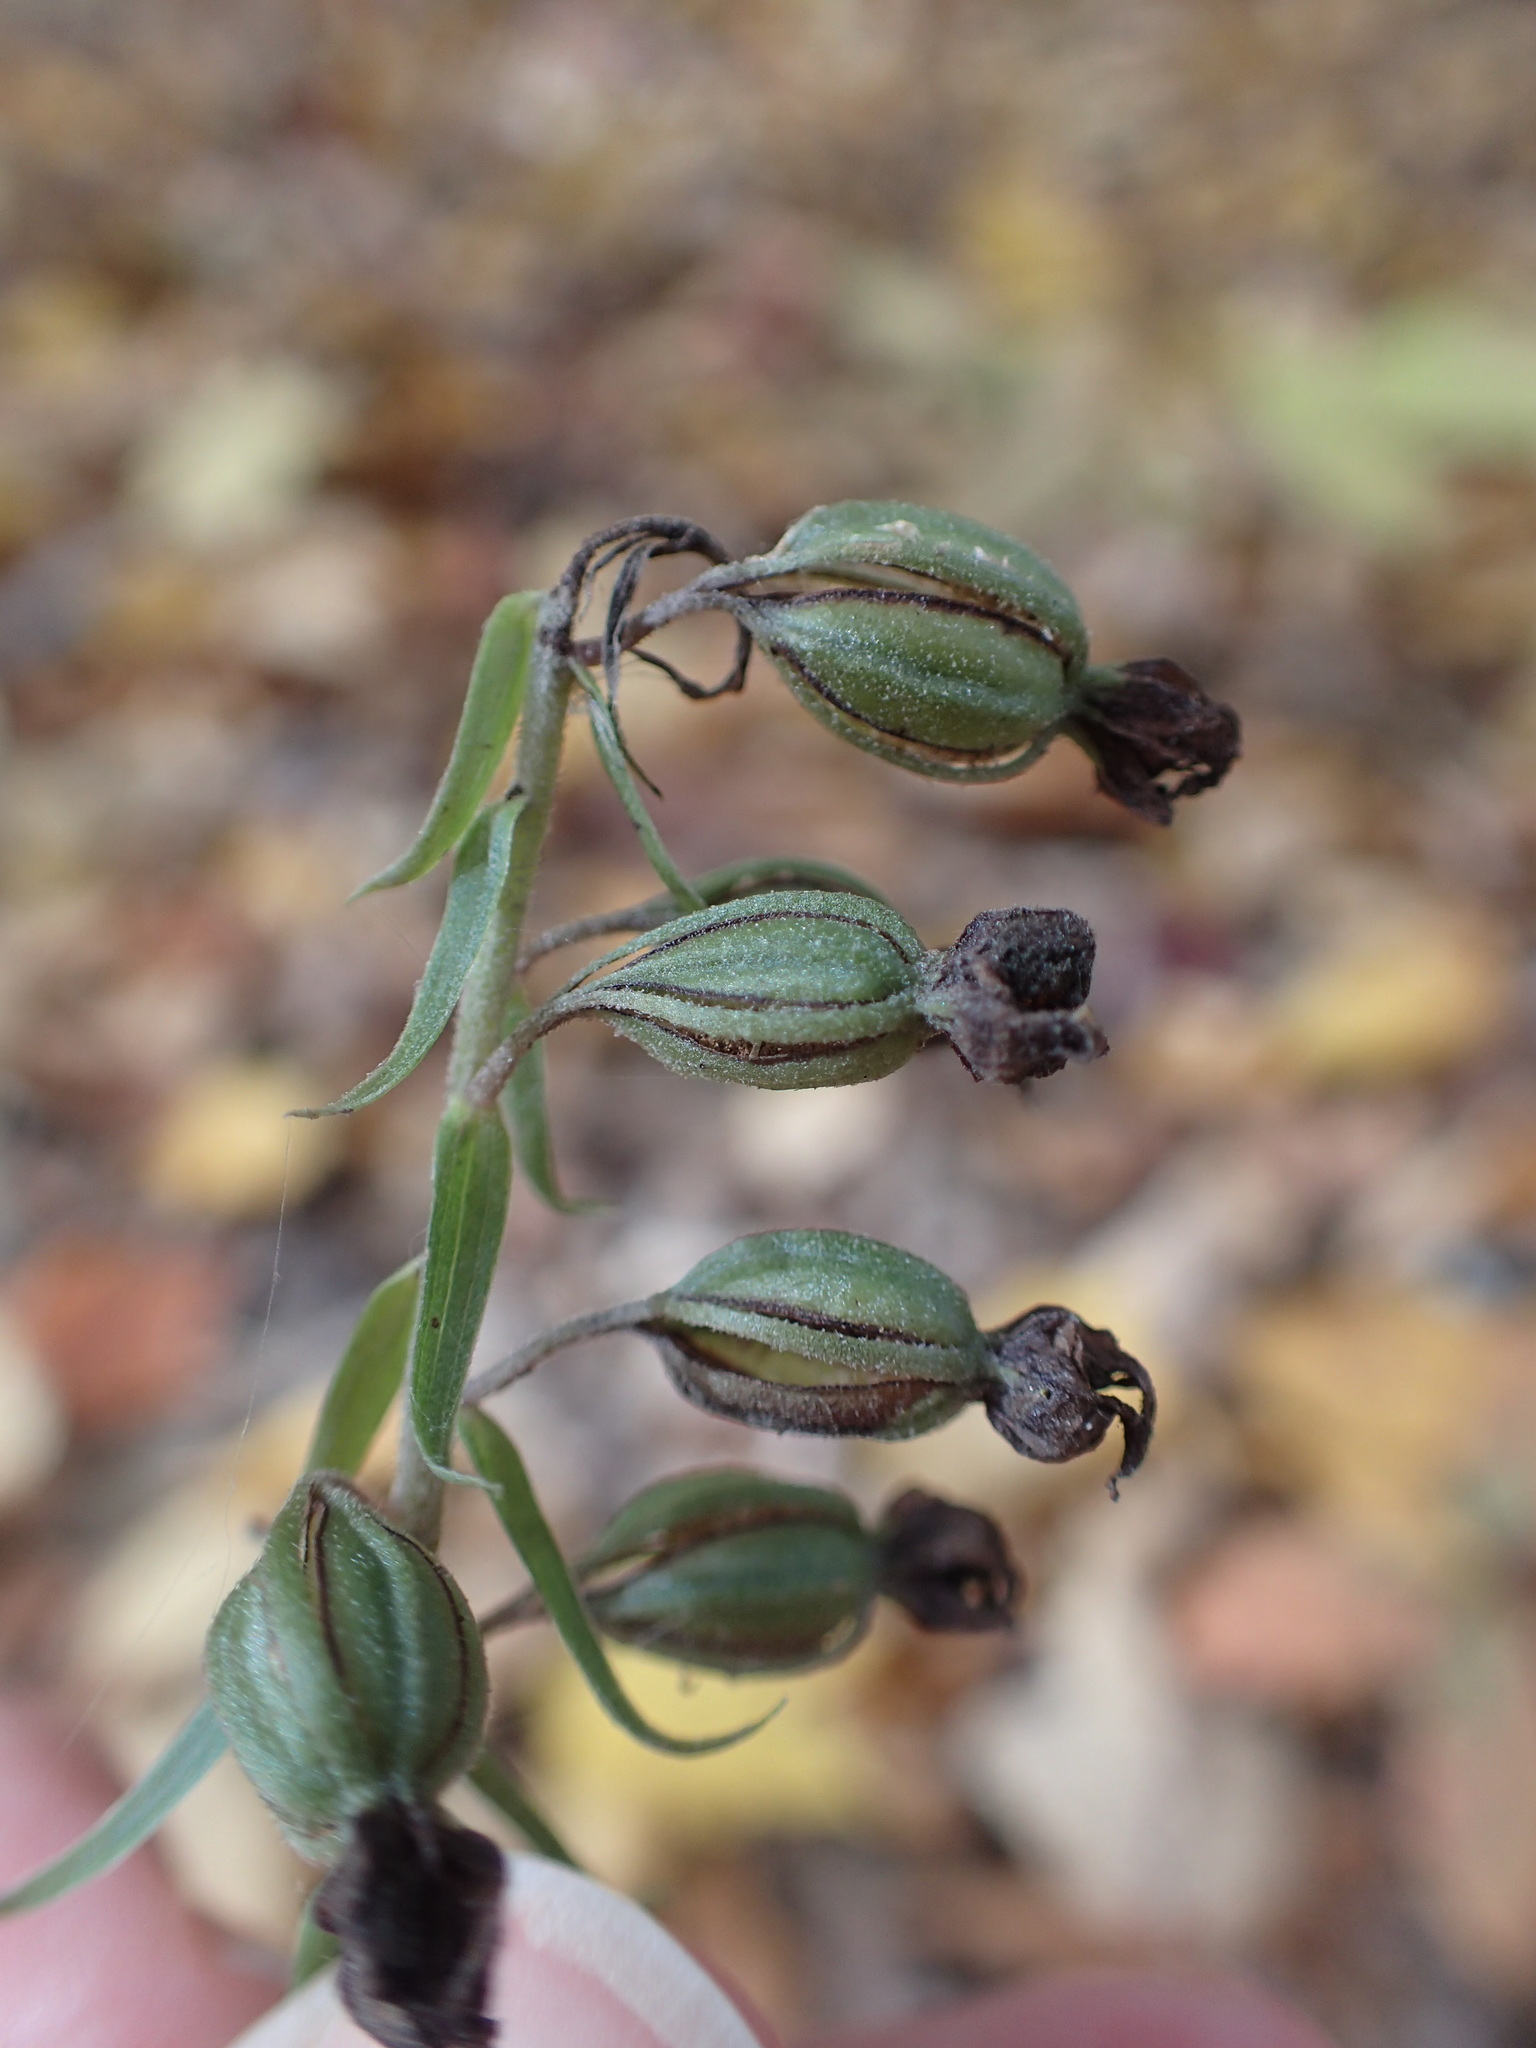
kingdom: Plantae
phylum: Tracheophyta
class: Liliopsida
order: Asparagales
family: Orchidaceae
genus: Epipactis
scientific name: Epipactis helleborine
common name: Broad-leaved helleborine
